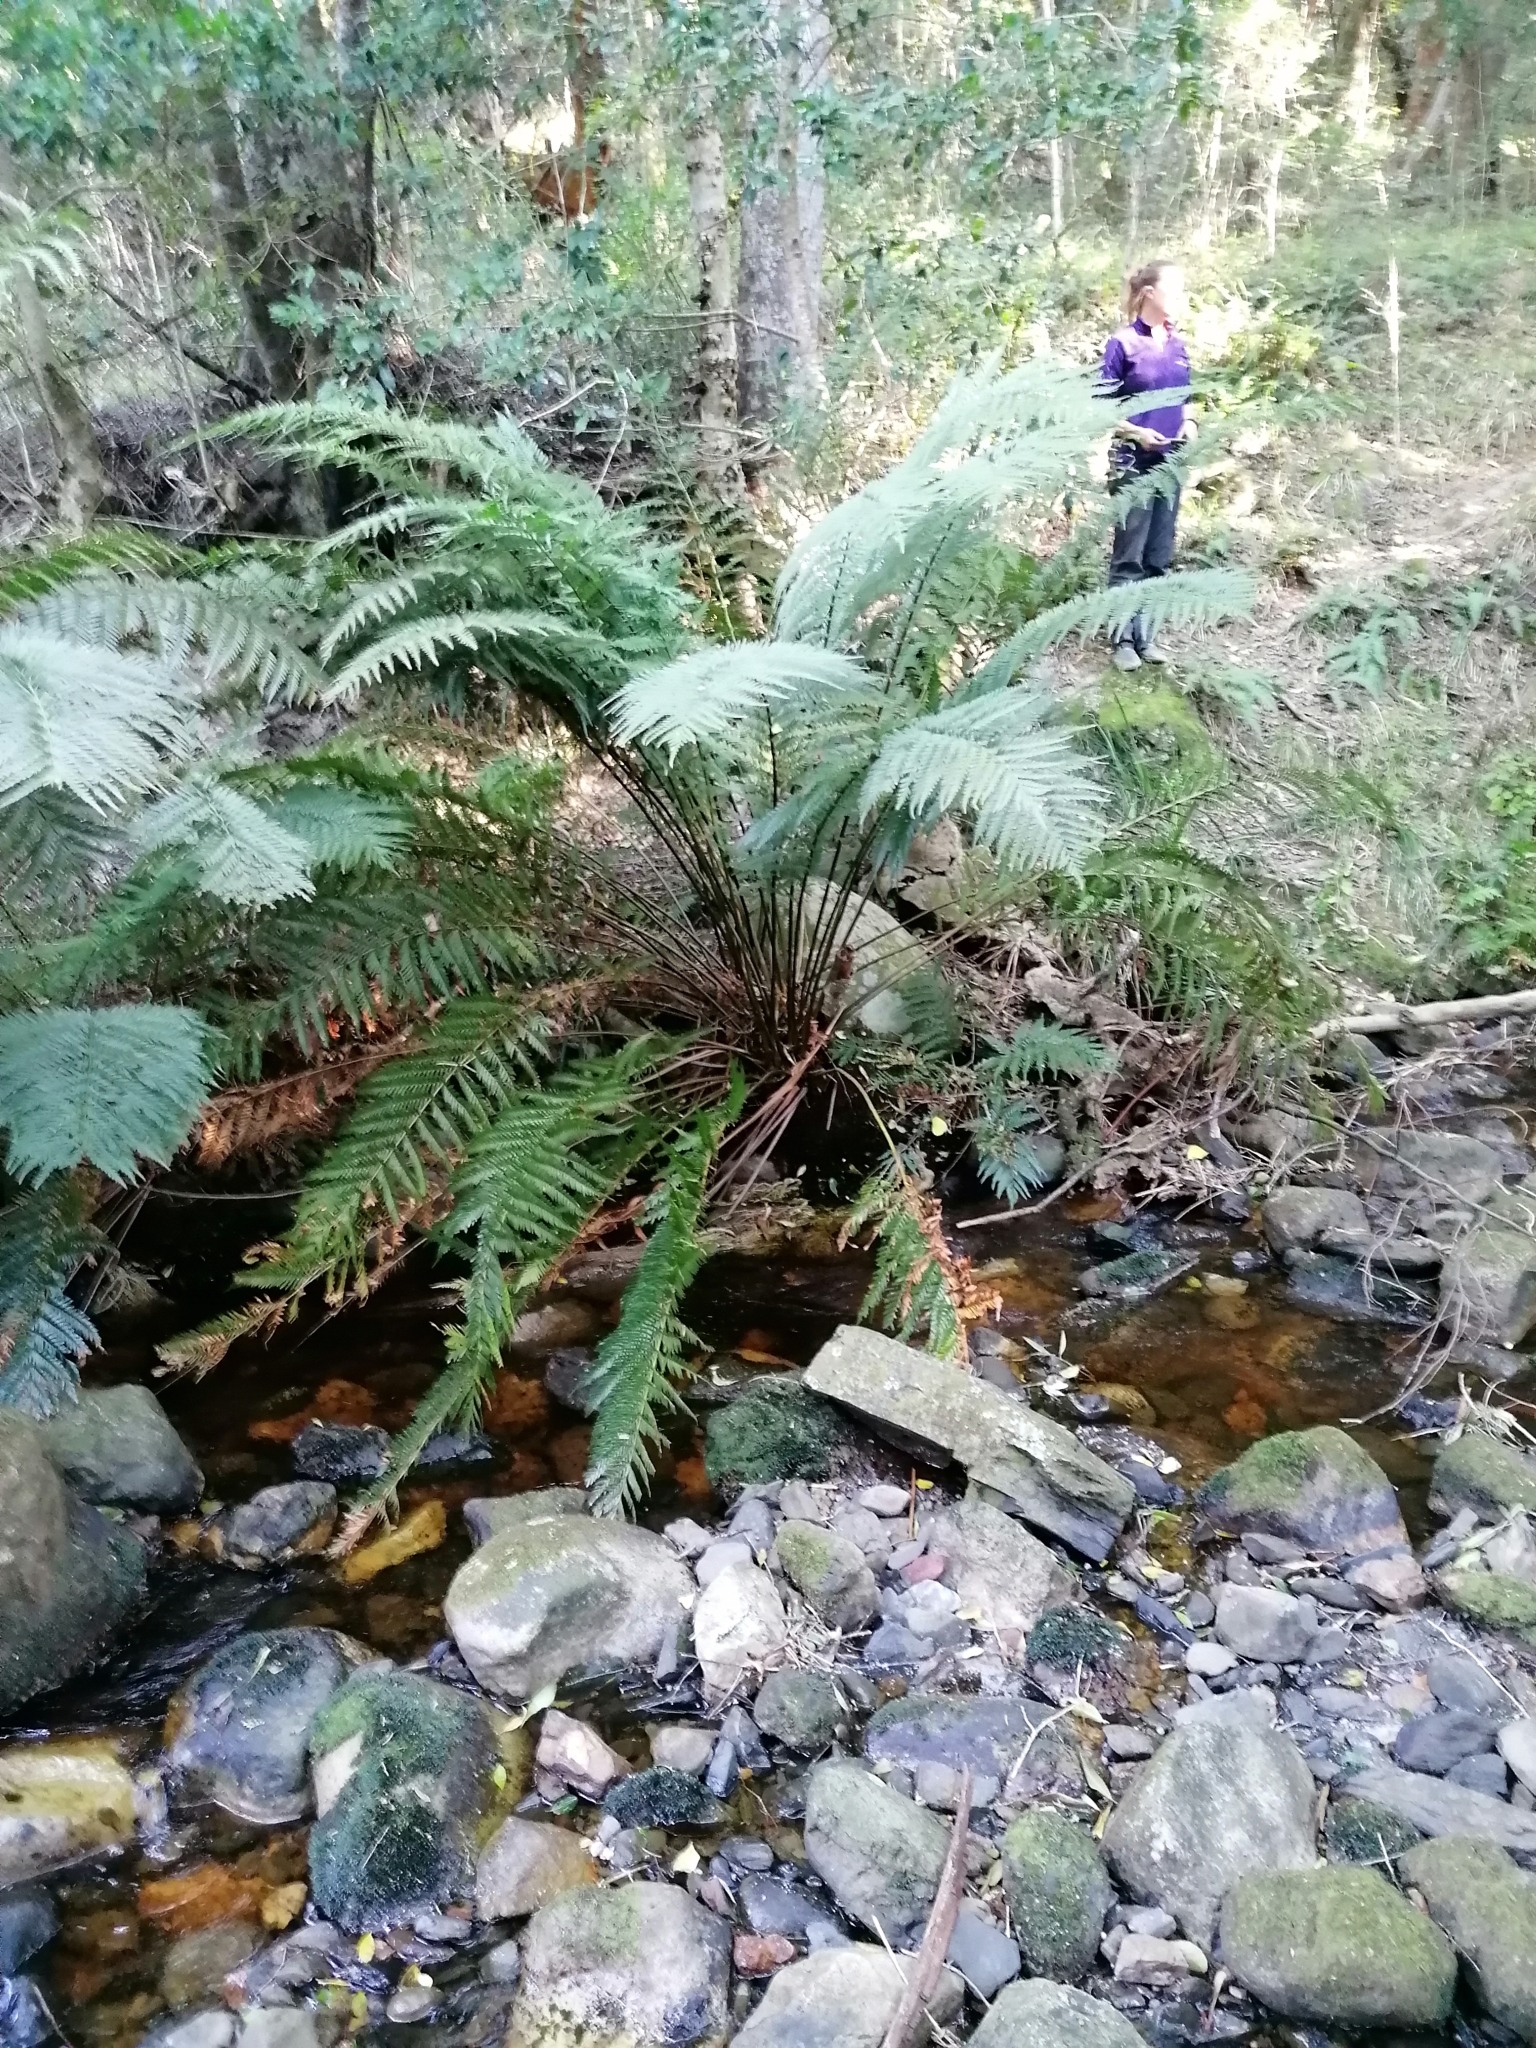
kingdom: Plantae
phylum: Tracheophyta
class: Polypodiopsida
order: Osmundales
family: Osmundaceae
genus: Todea
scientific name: Todea barbara
